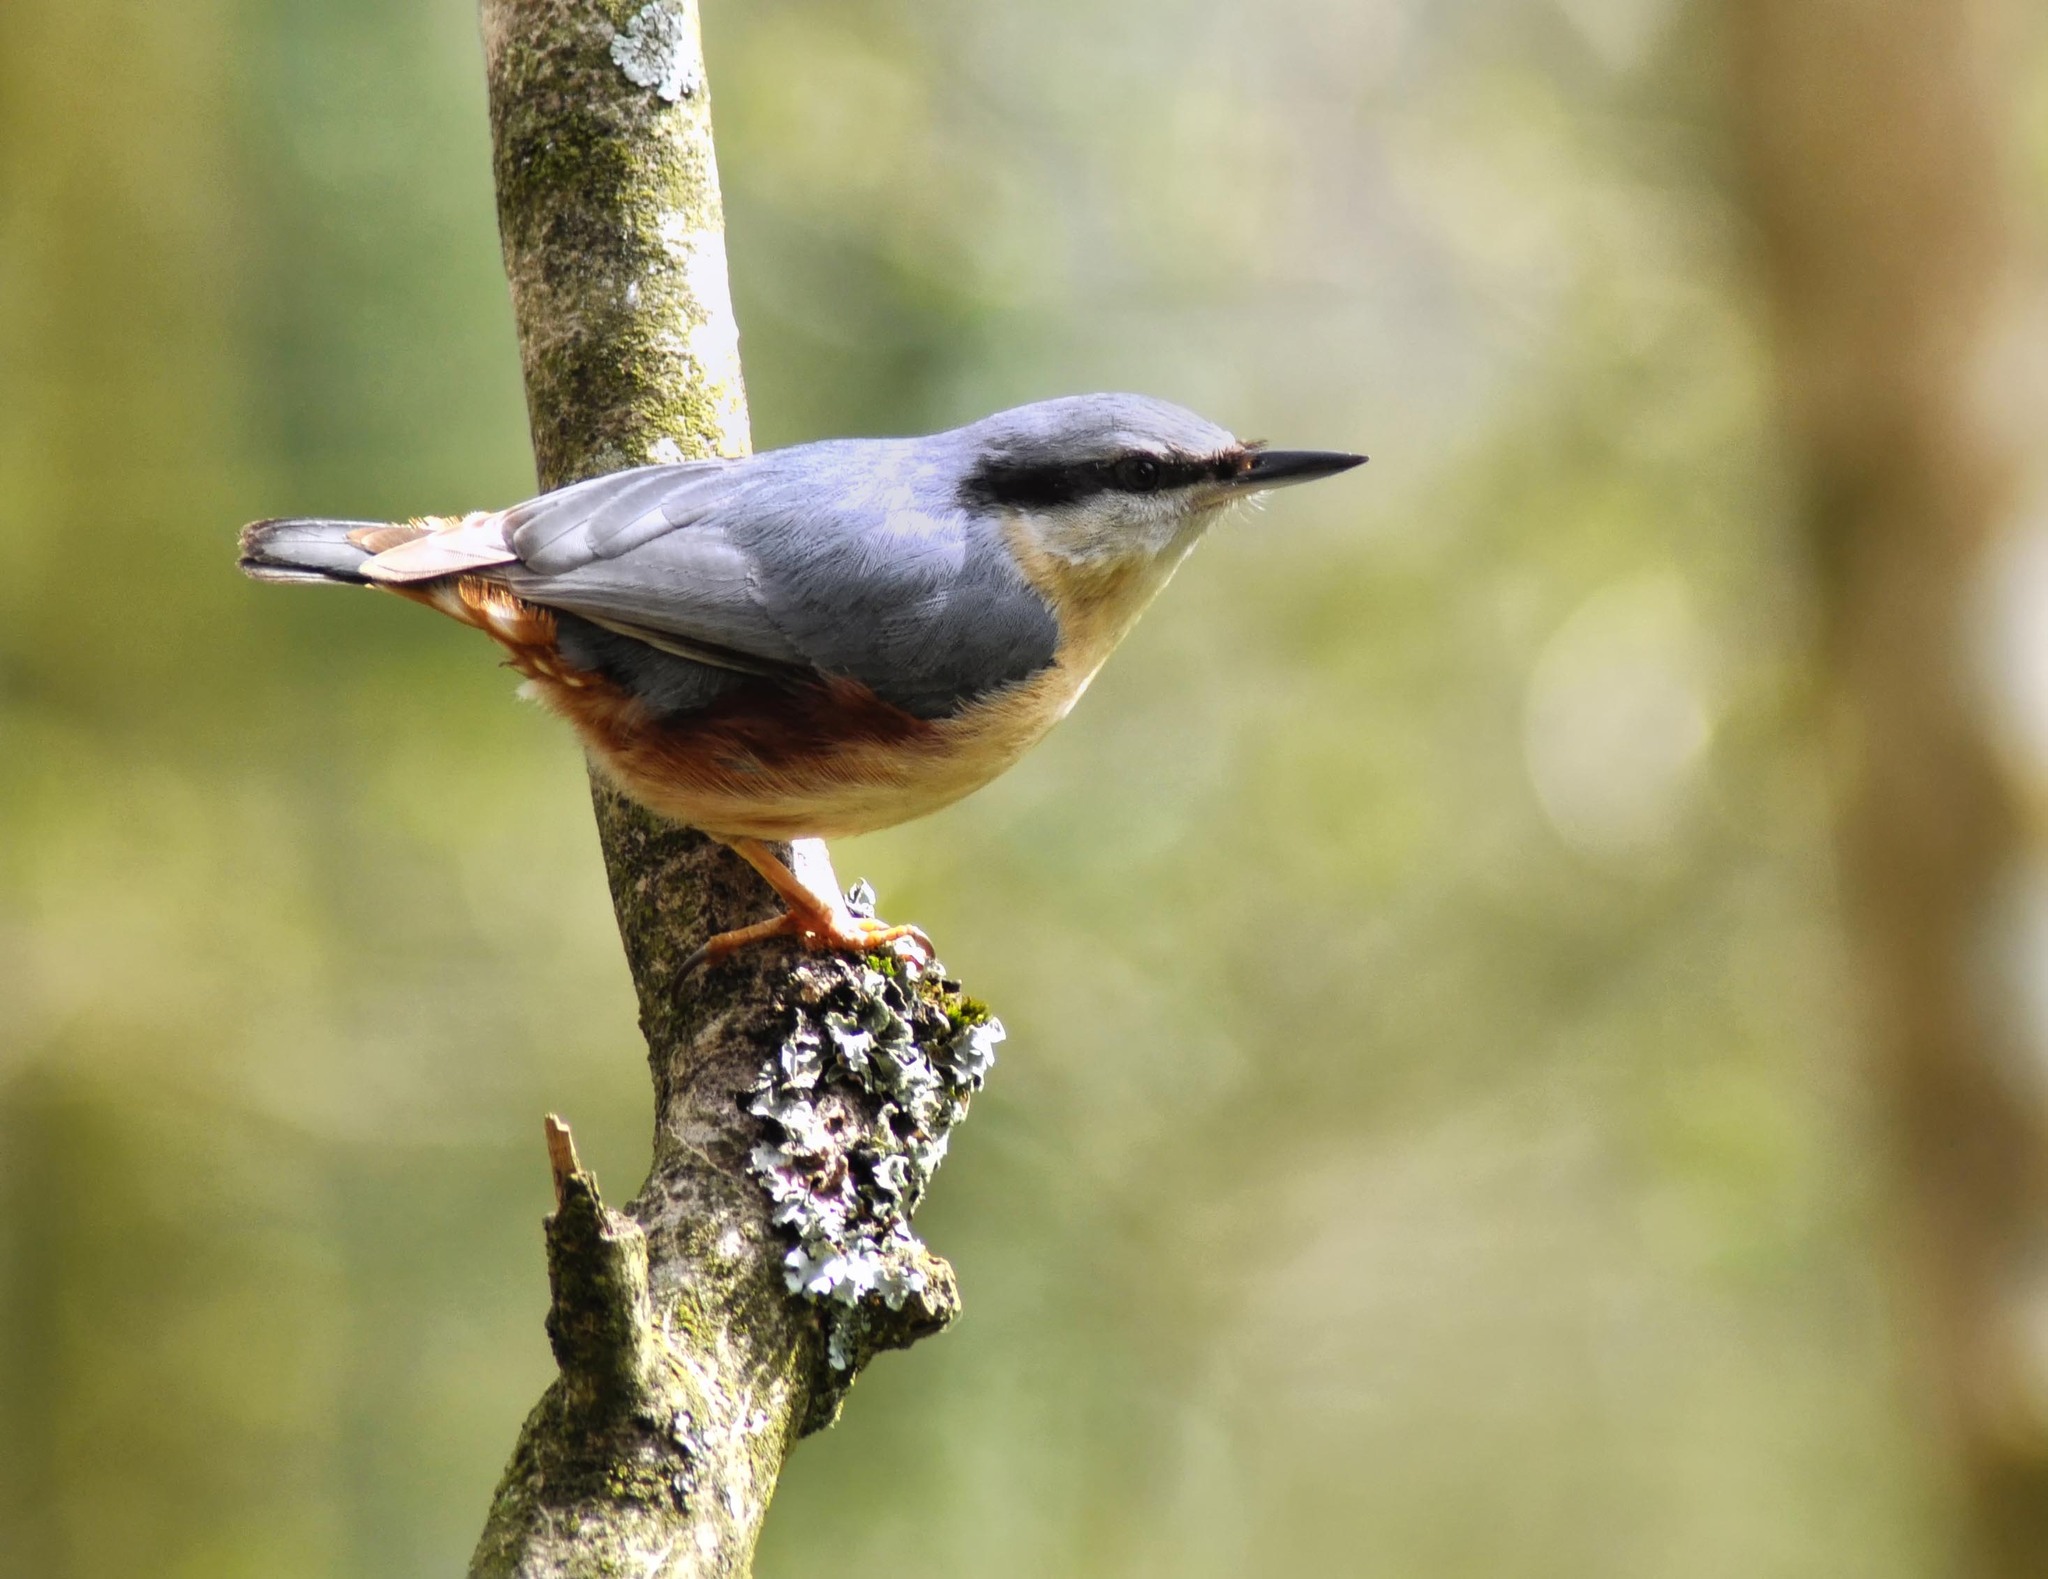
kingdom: Animalia
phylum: Chordata
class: Aves
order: Passeriformes
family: Sittidae
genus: Sitta
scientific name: Sitta europaea
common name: Eurasian nuthatch
